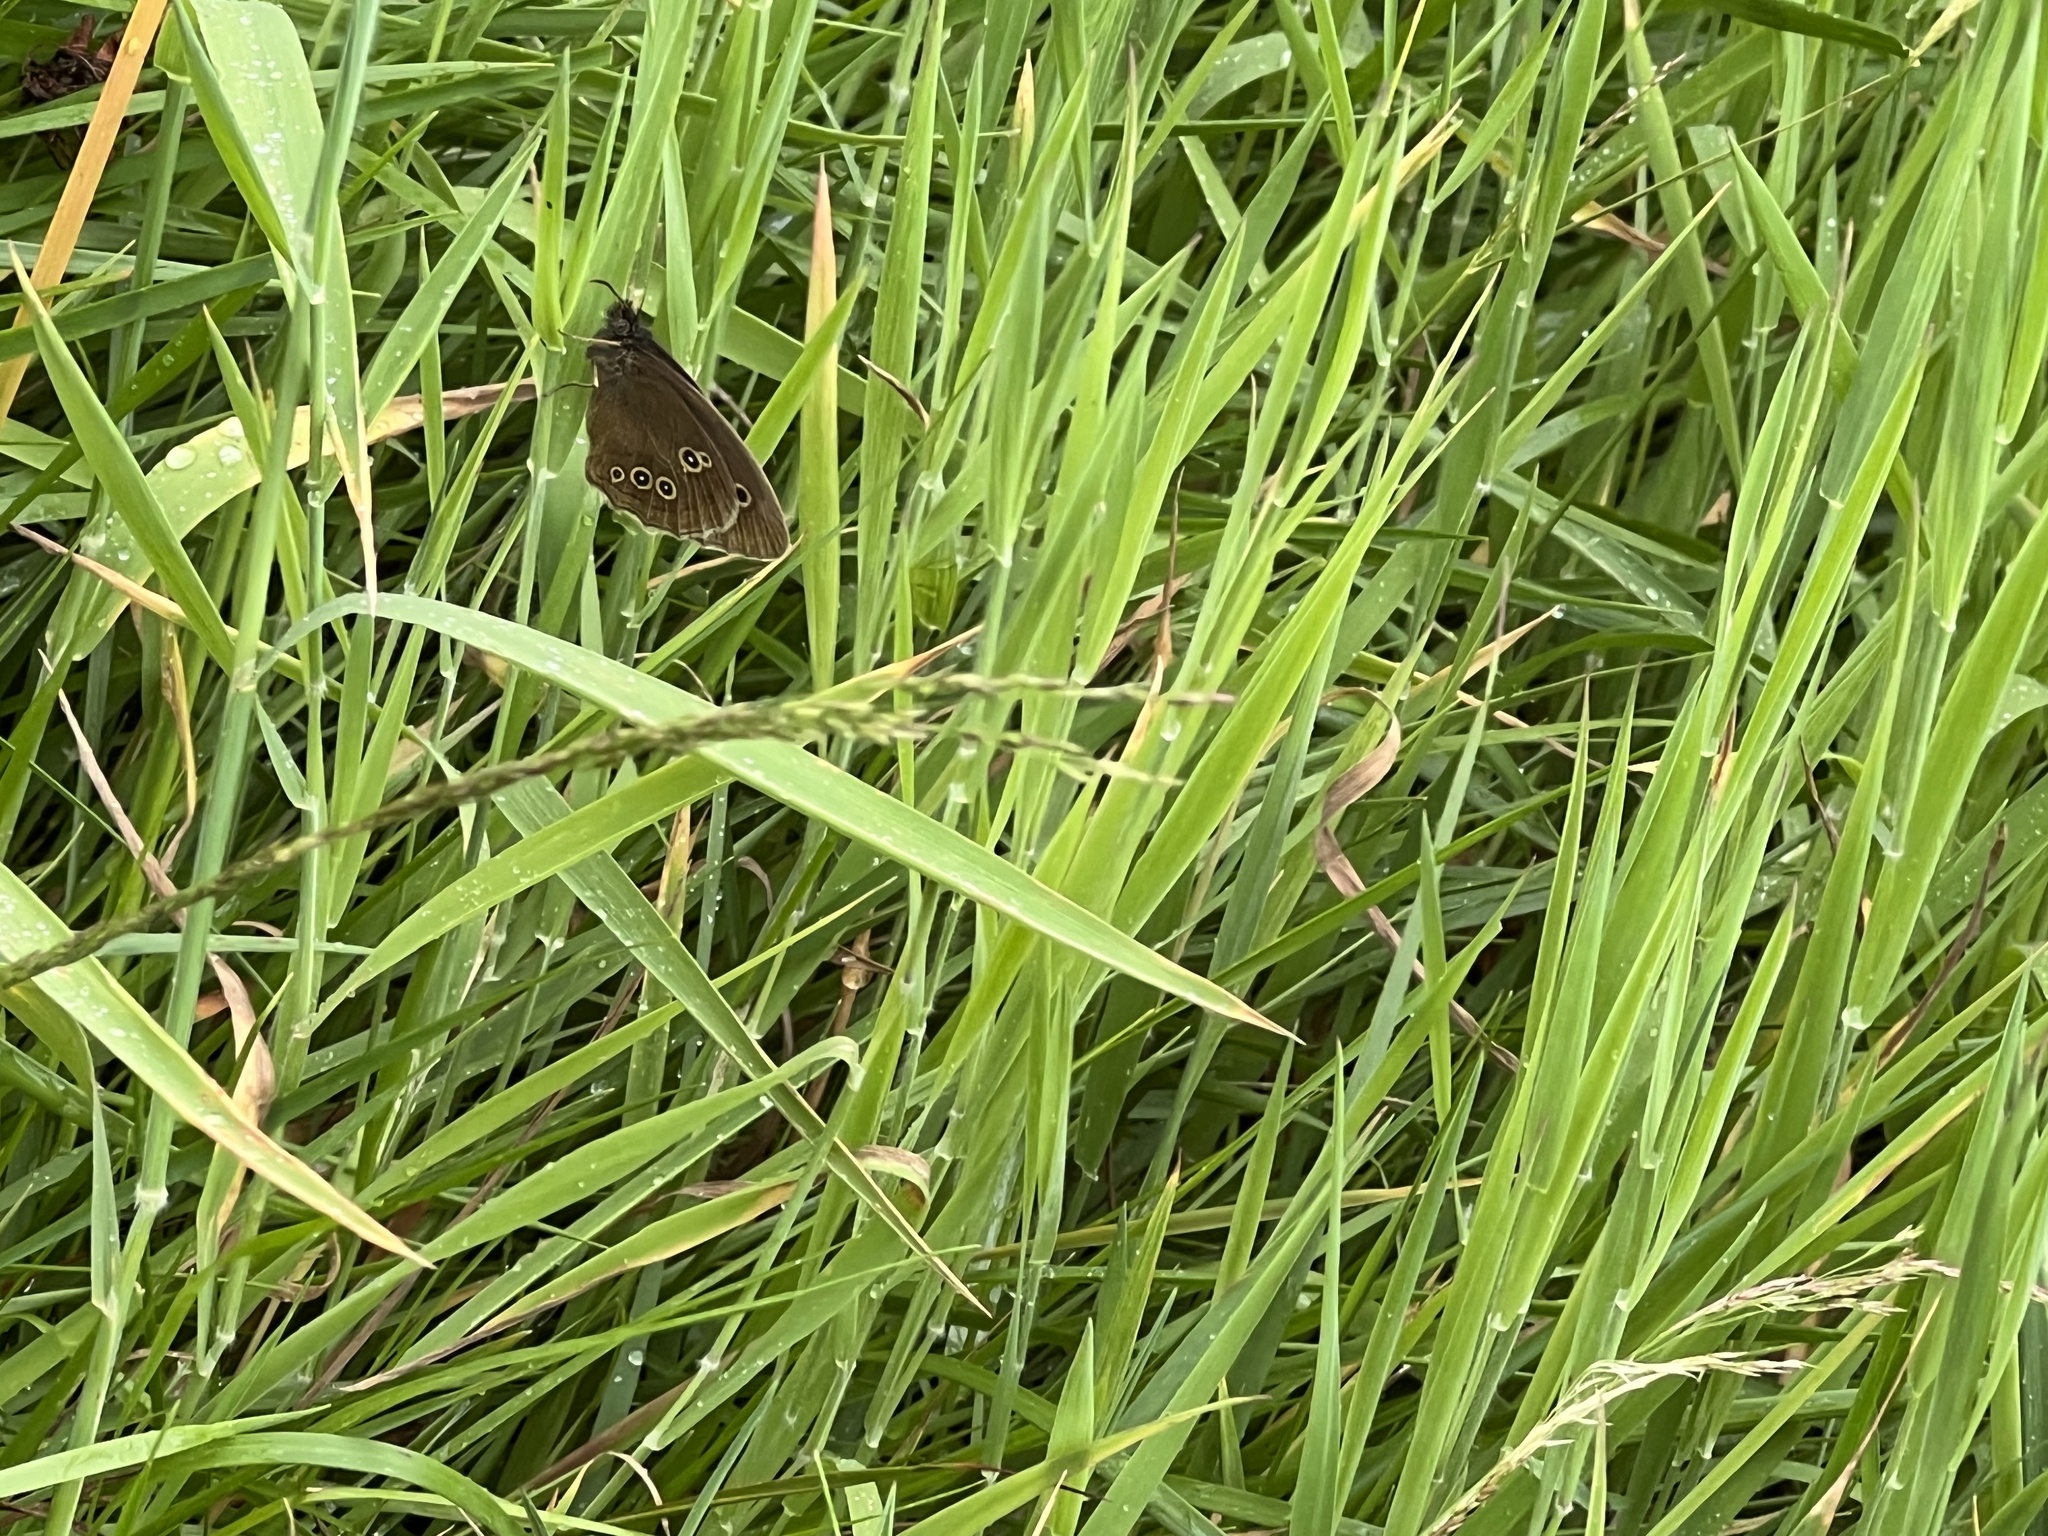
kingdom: Animalia
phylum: Arthropoda
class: Insecta
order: Lepidoptera
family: Nymphalidae
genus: Aphantopus
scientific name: Aphantopus hyperantus
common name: Ringlet
